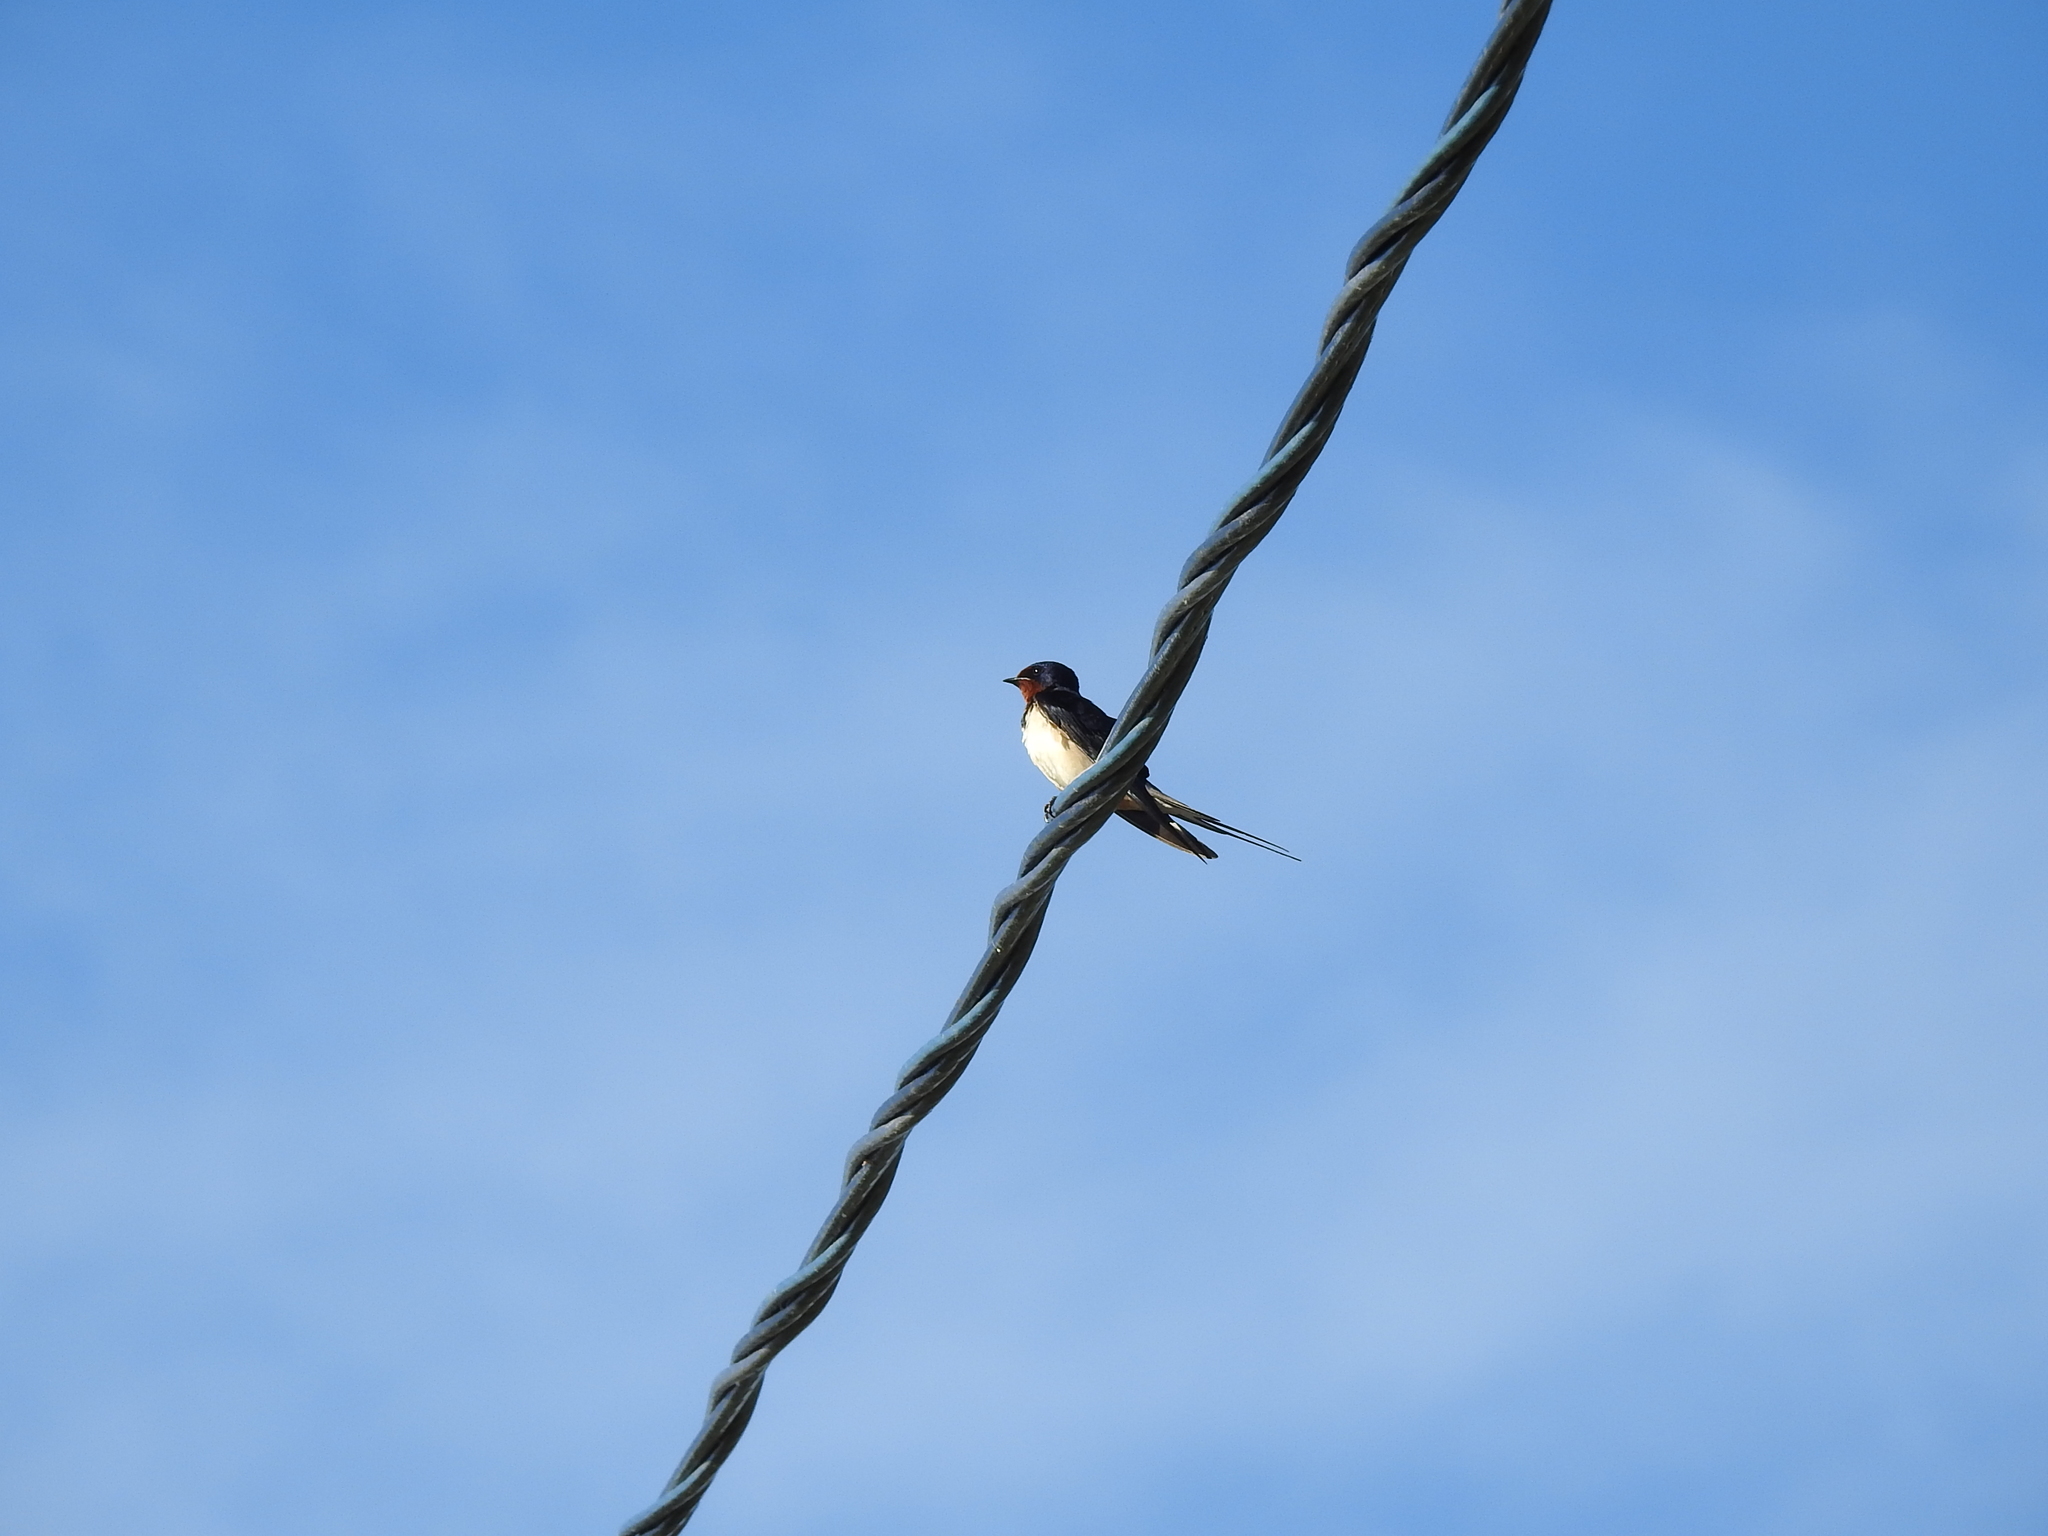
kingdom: Animalia
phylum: Chordata
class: Aves
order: Passeriformes
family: Hirundinidae
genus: Hirundo
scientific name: Hirundo rustica
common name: Barn swallow
